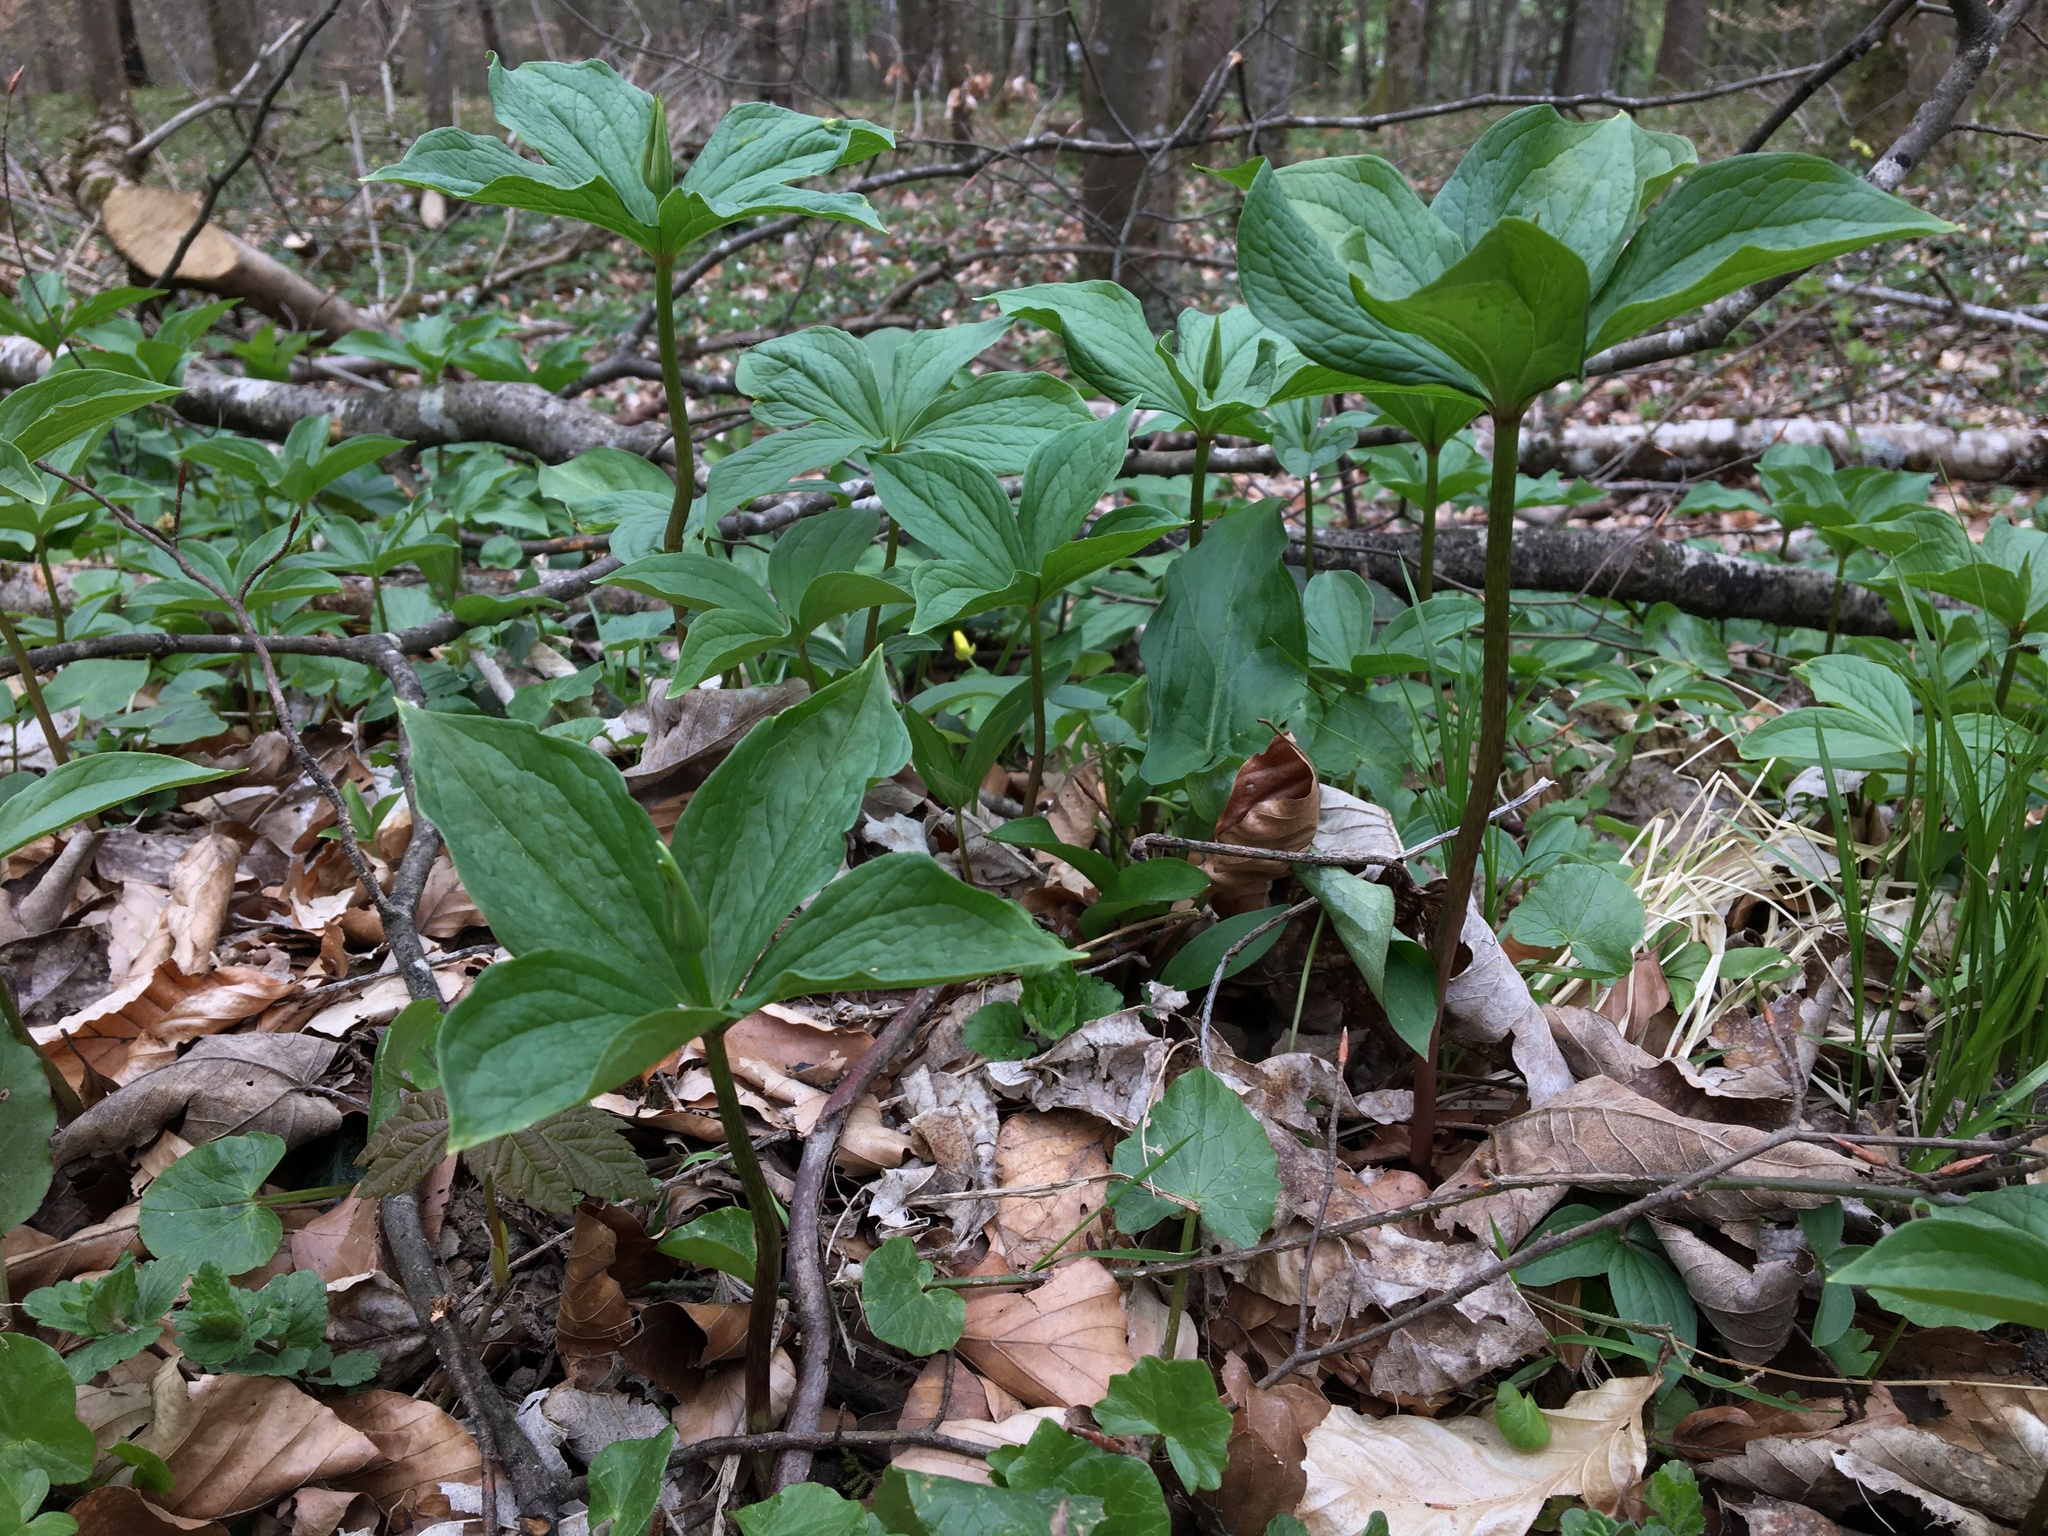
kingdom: Plantae
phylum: Tracheophyta
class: Liliopsida
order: Liliales
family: Melanthiaceae
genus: Paris
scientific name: Paris quadrifolia
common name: Herb-paris
